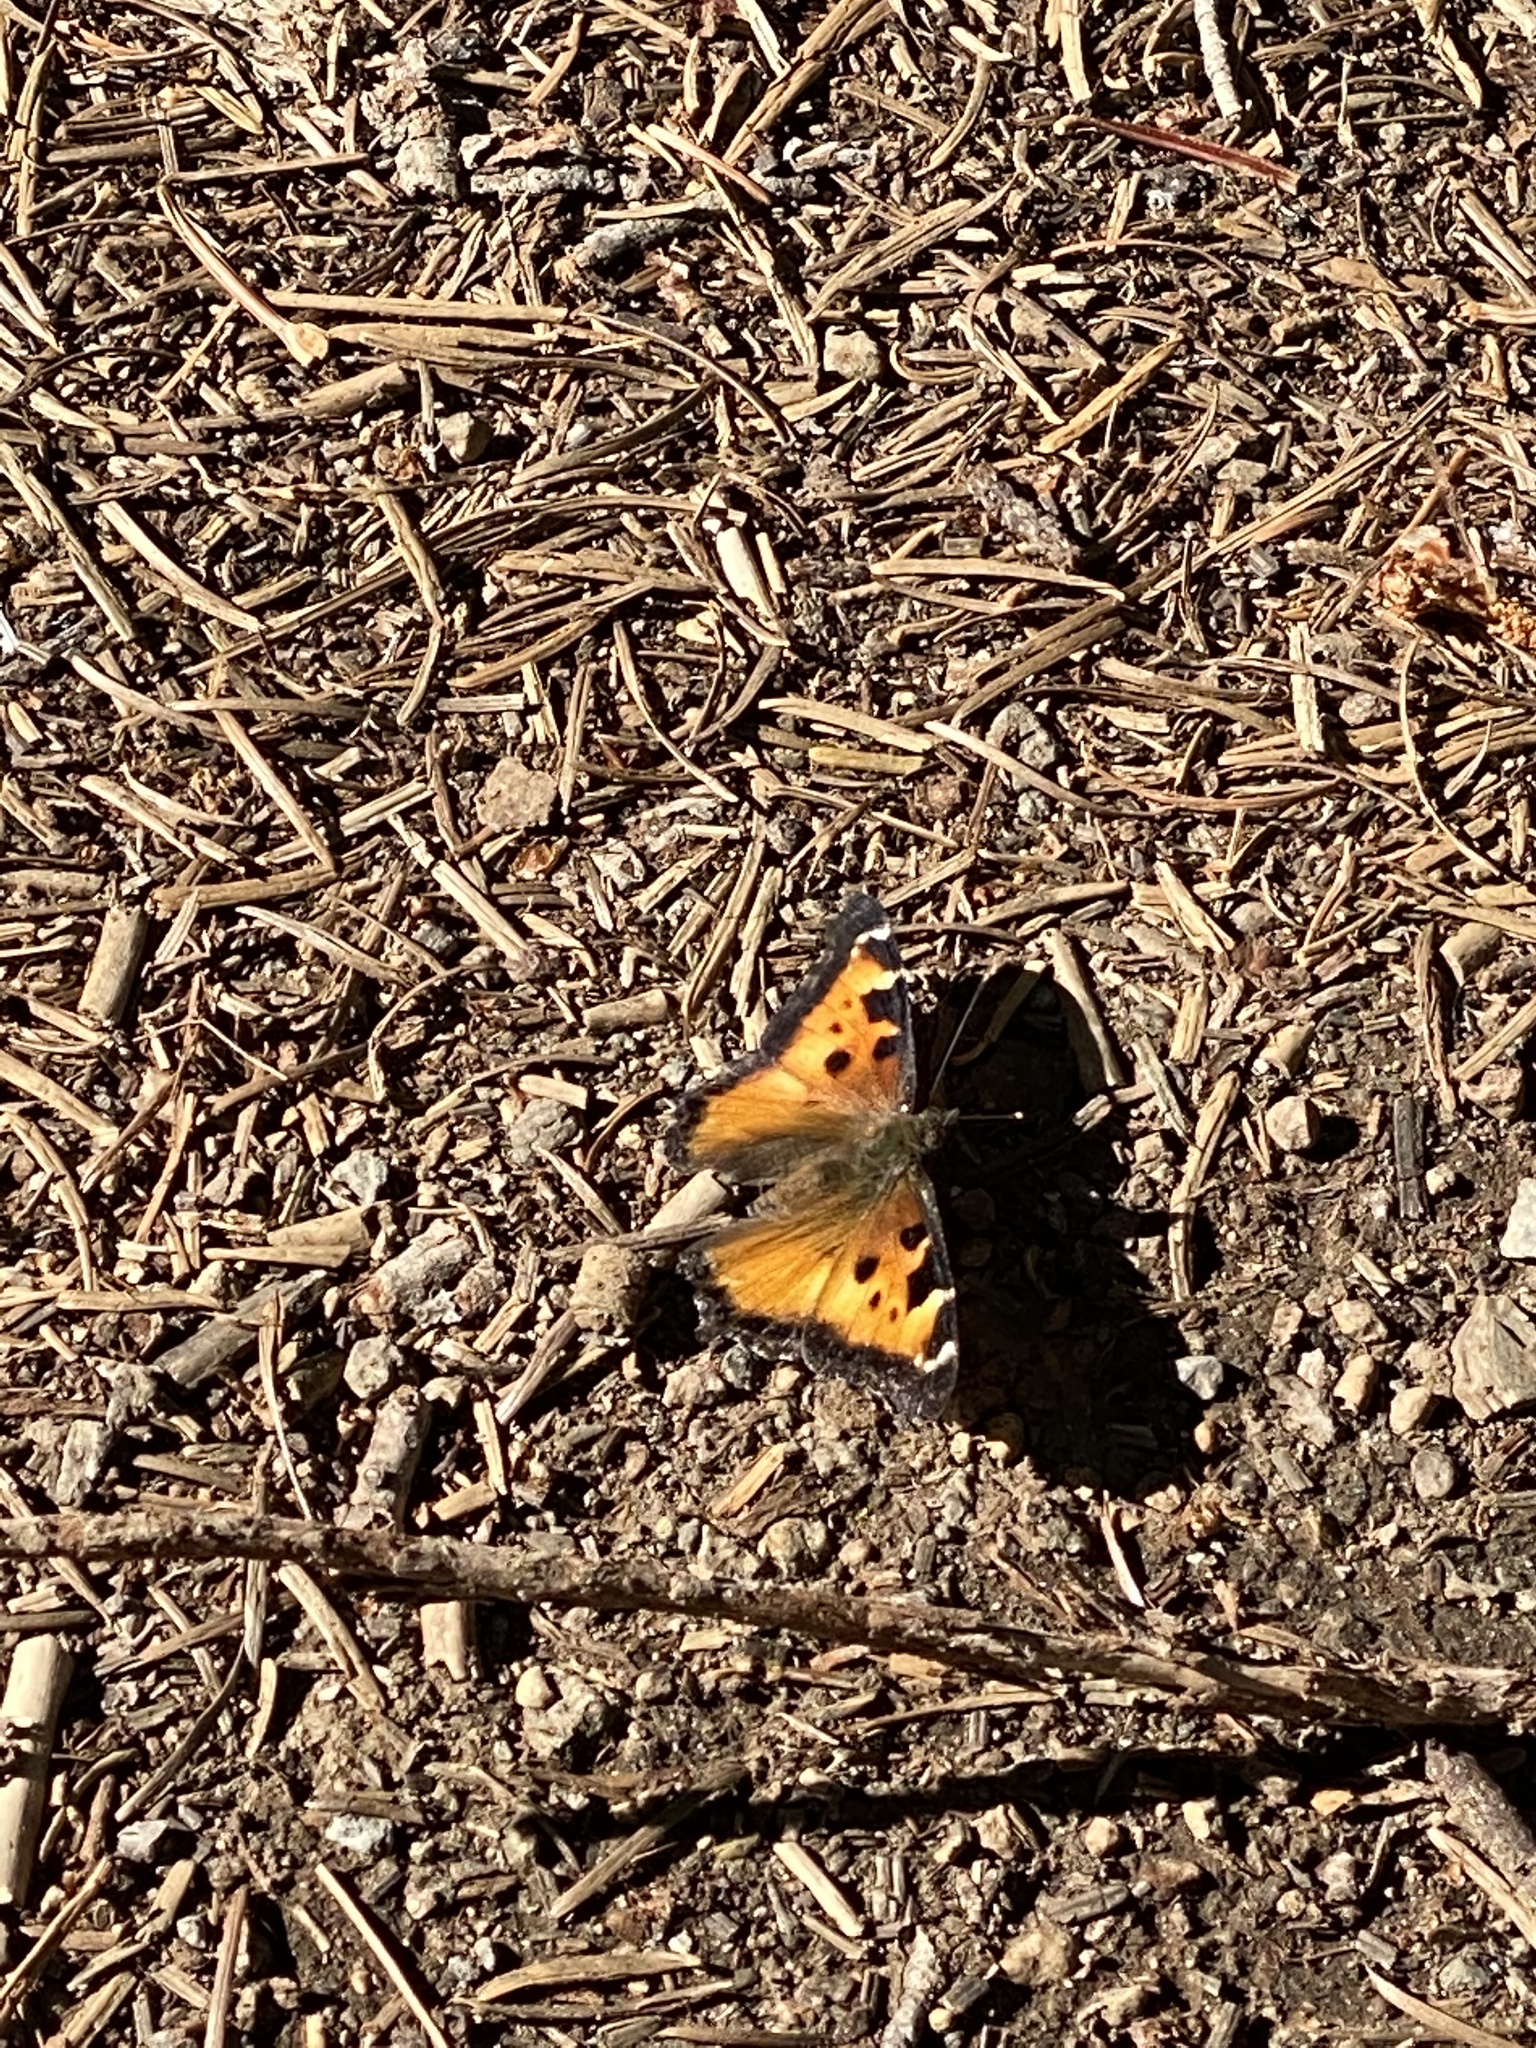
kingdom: Animalia
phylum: Arthropoda
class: Insecta
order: Lepidoptera
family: Nymphalidae
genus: Nymphalis
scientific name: Nymphalis californica
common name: California tortoiseshell
